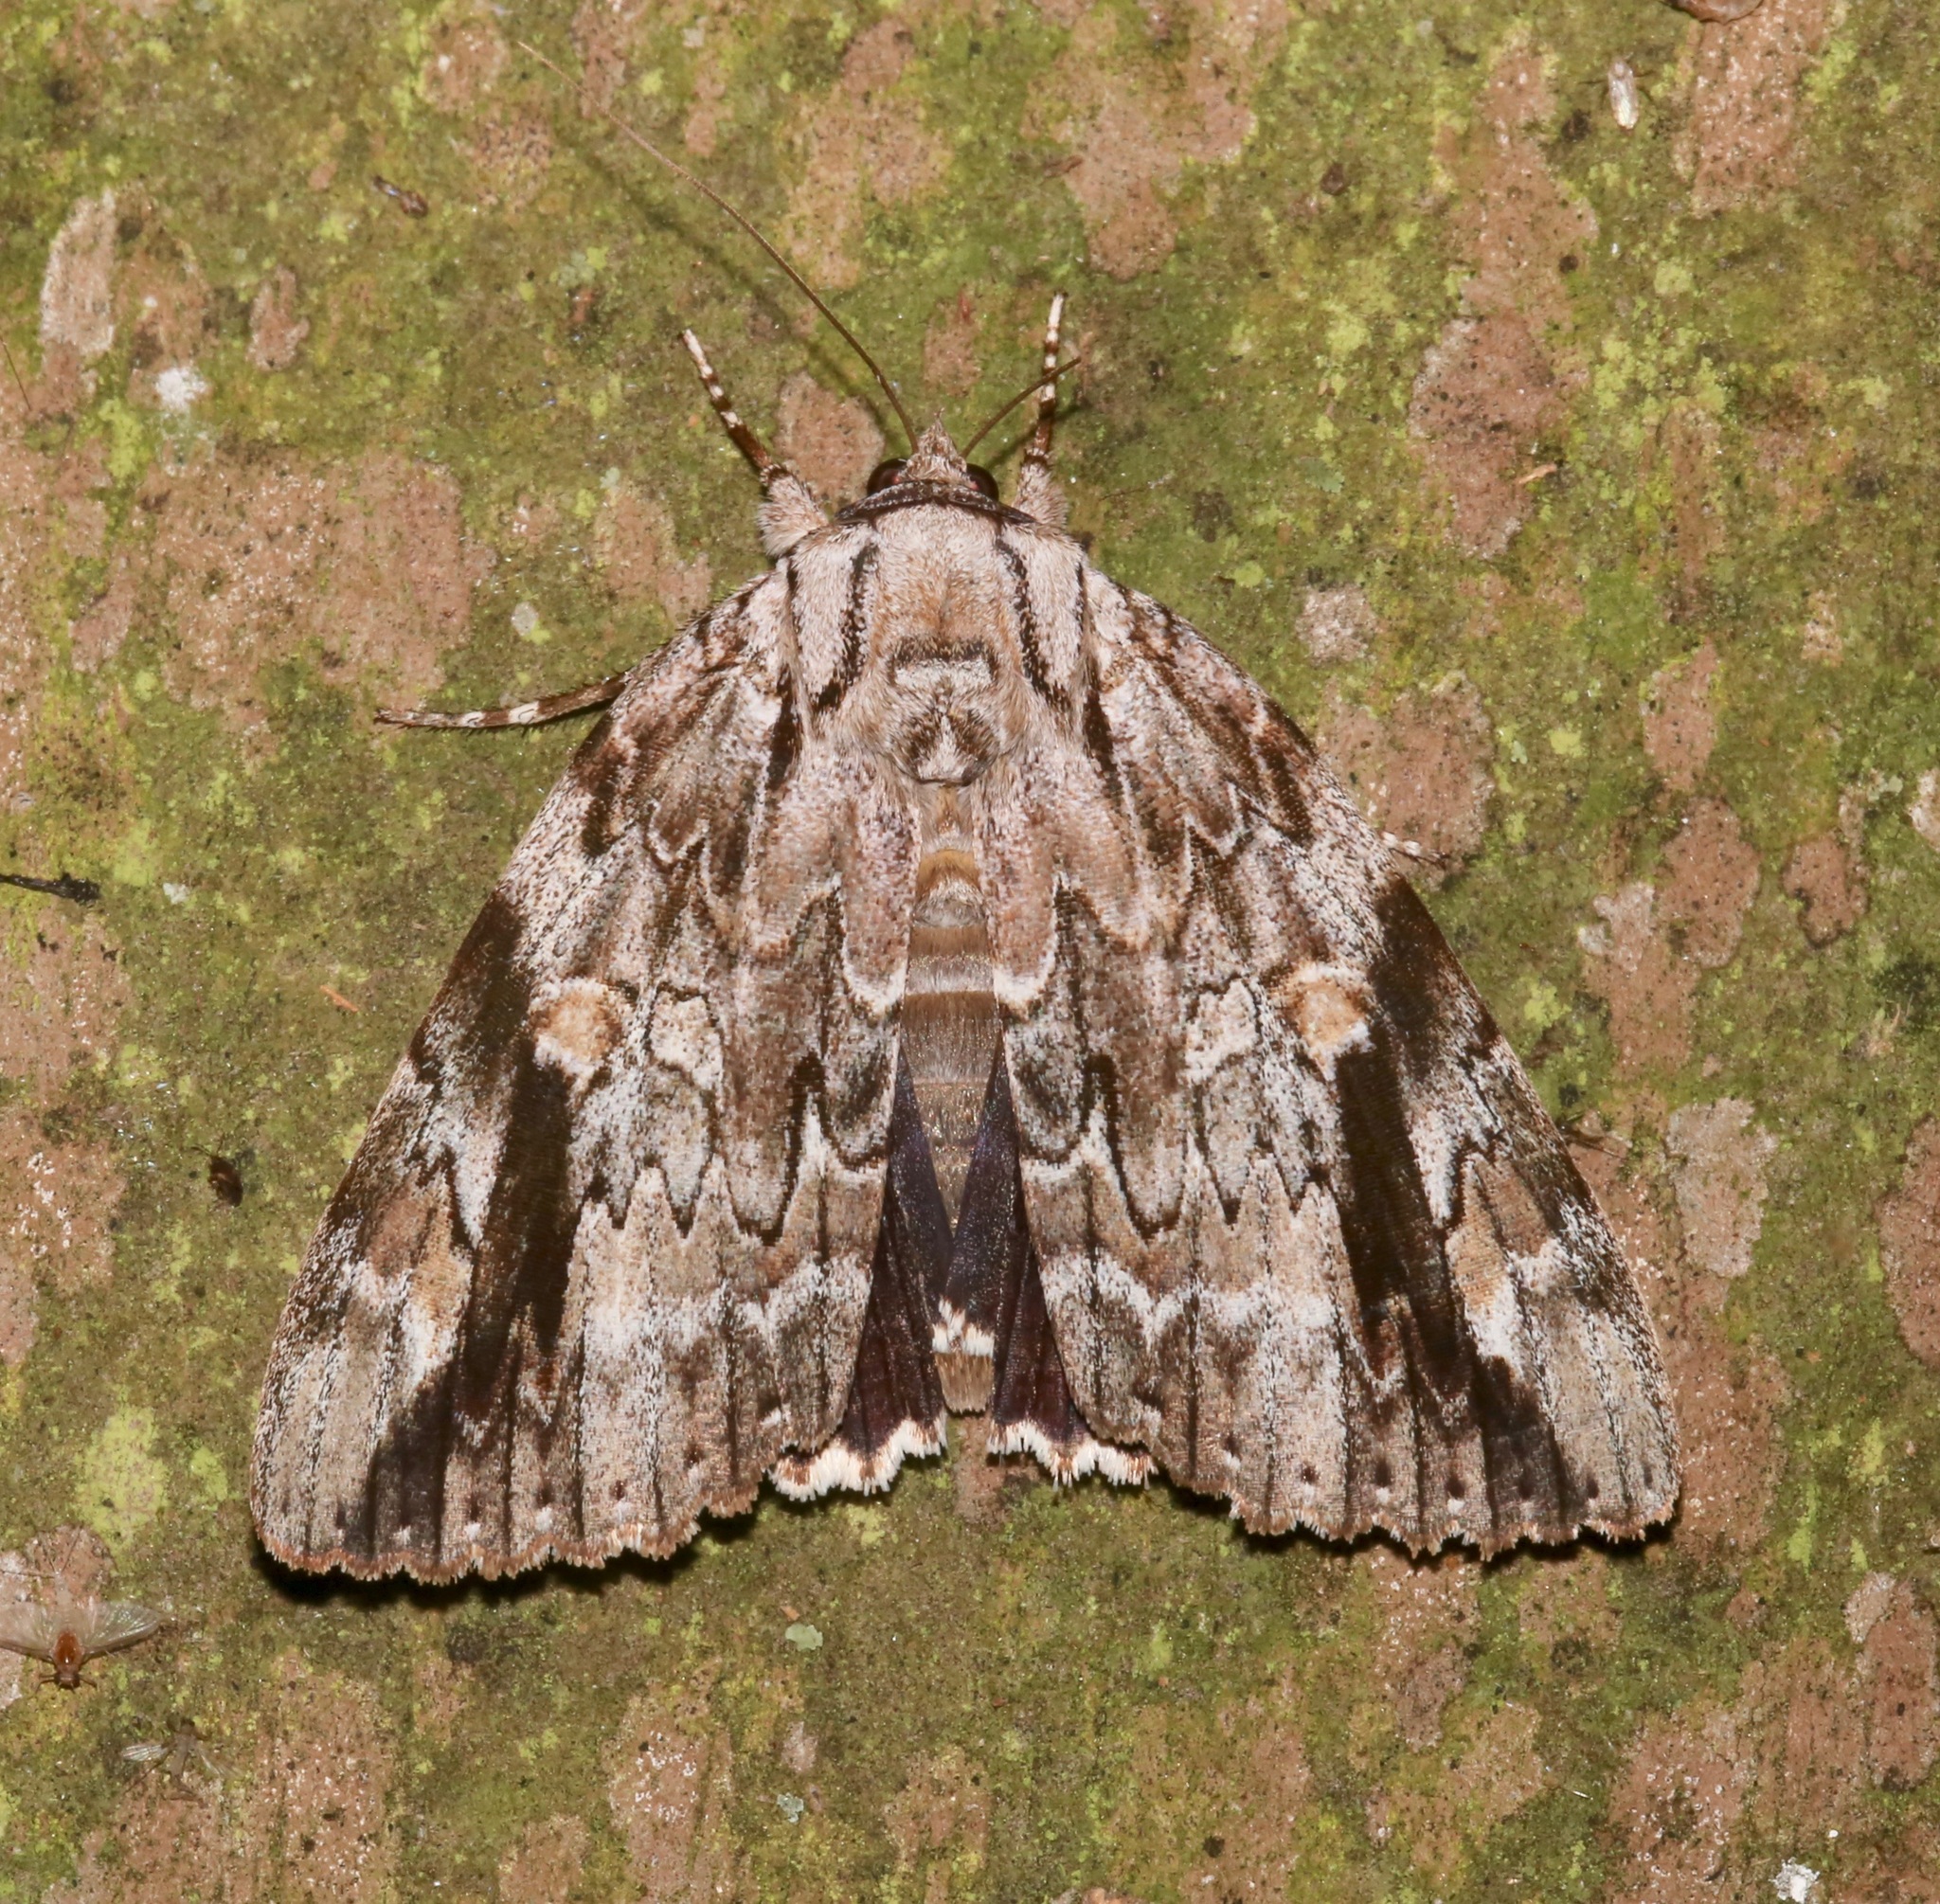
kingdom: Animalia
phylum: Arthropoda
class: Insecta
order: Lepidoptera
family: Erebidae
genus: Catocala
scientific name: Catocala maestosa
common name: Sad underwing
